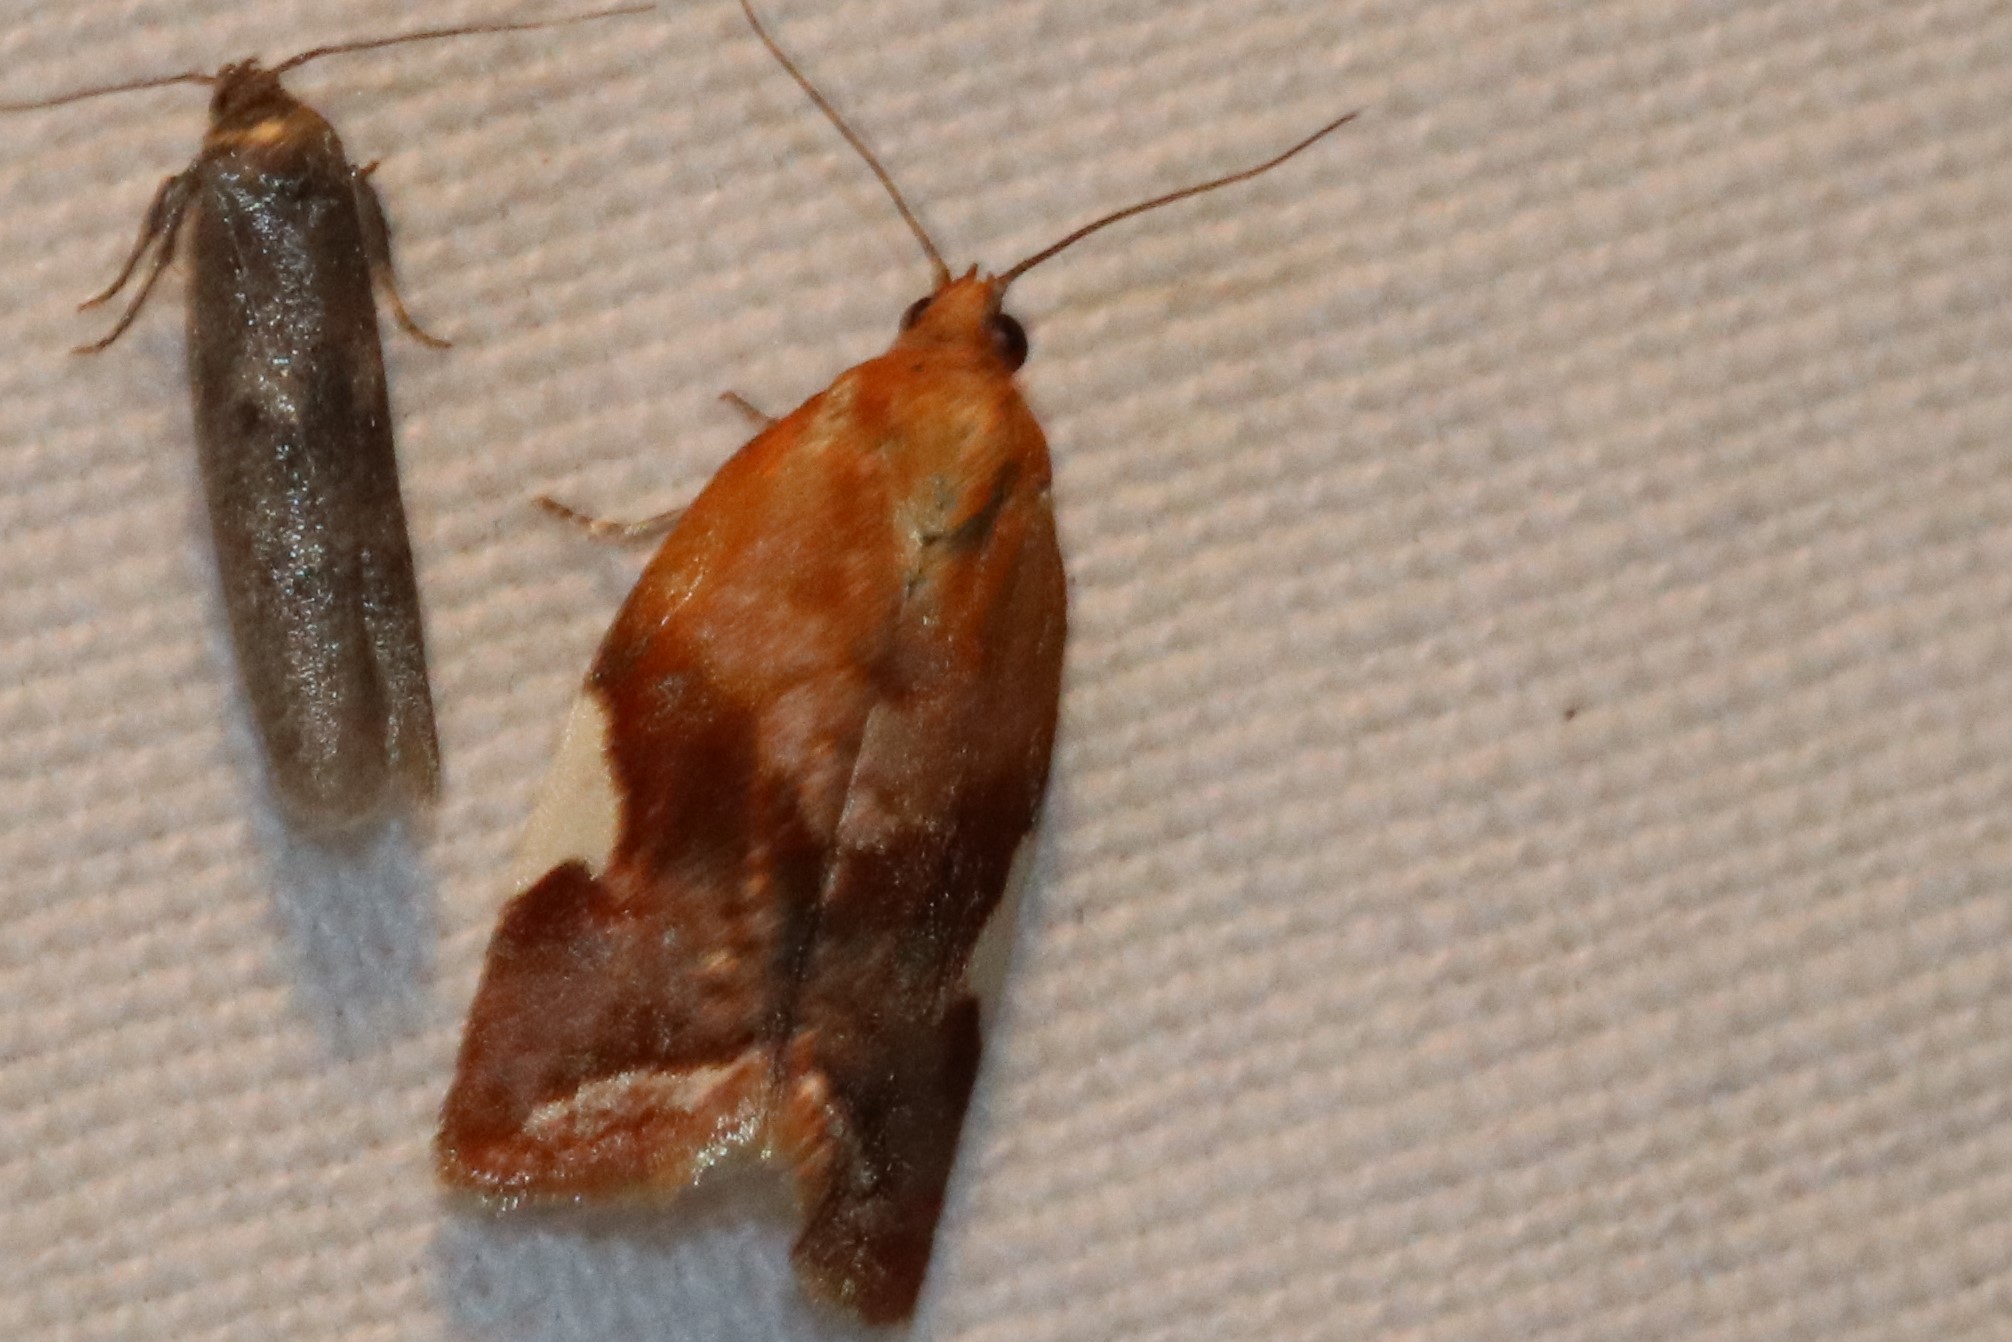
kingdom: Animalia
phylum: Arthropoda
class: Insecta
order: Lepidoptera
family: Tortricidae
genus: Clepsis
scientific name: Clepsis persicana
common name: White triangle tortrix
